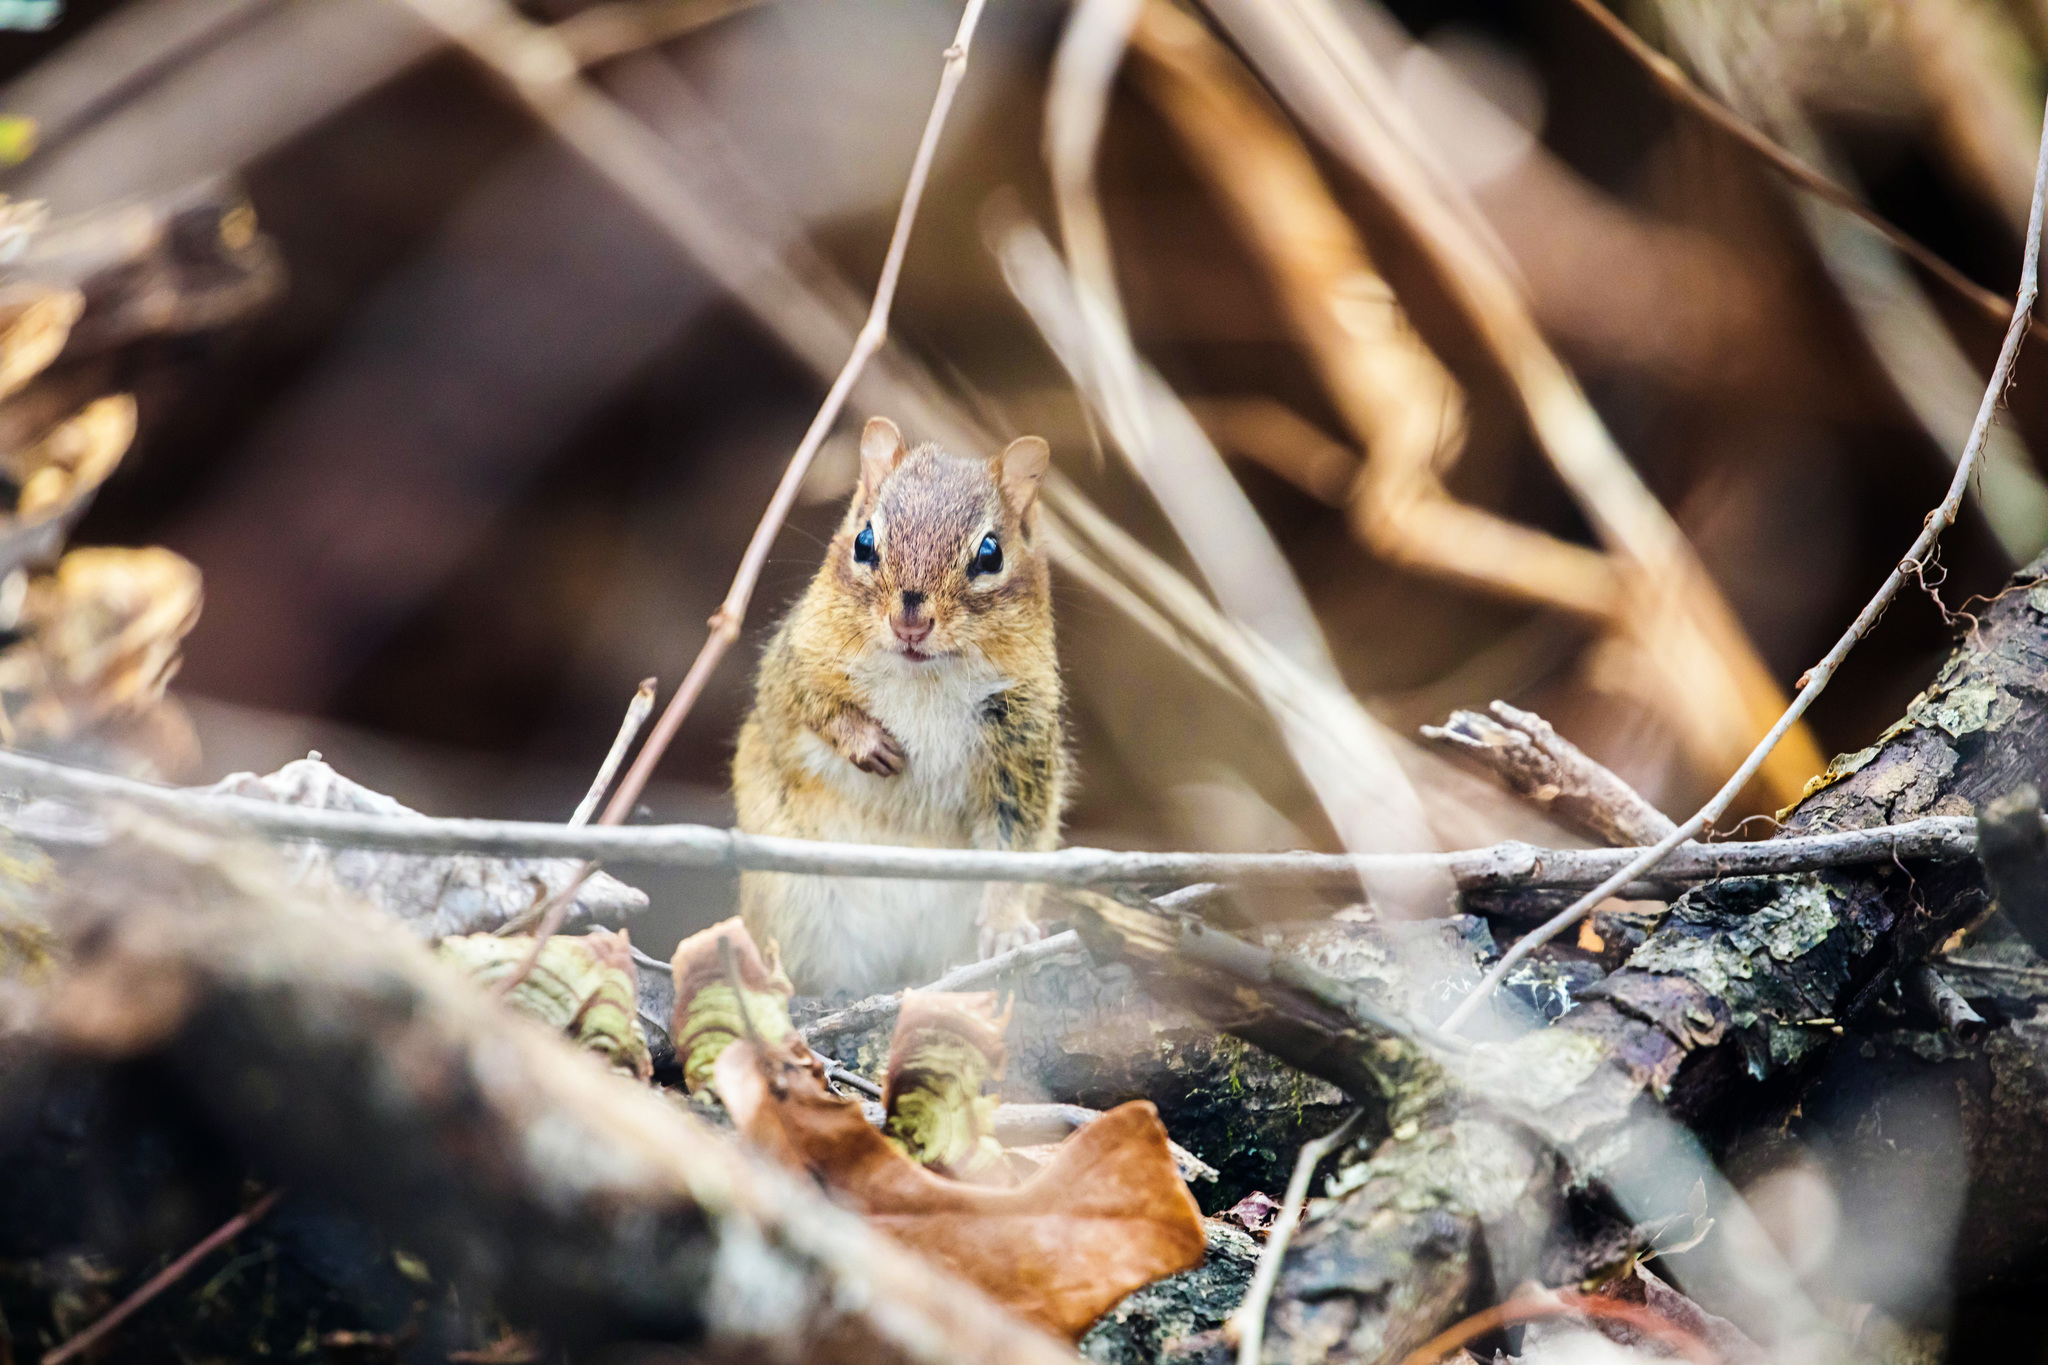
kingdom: Animalia
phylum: Chordata
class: Mammalia
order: Rodentia
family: Sciuridae
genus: Tamias
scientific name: Tamias striatus
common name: Eastern chipmunk
